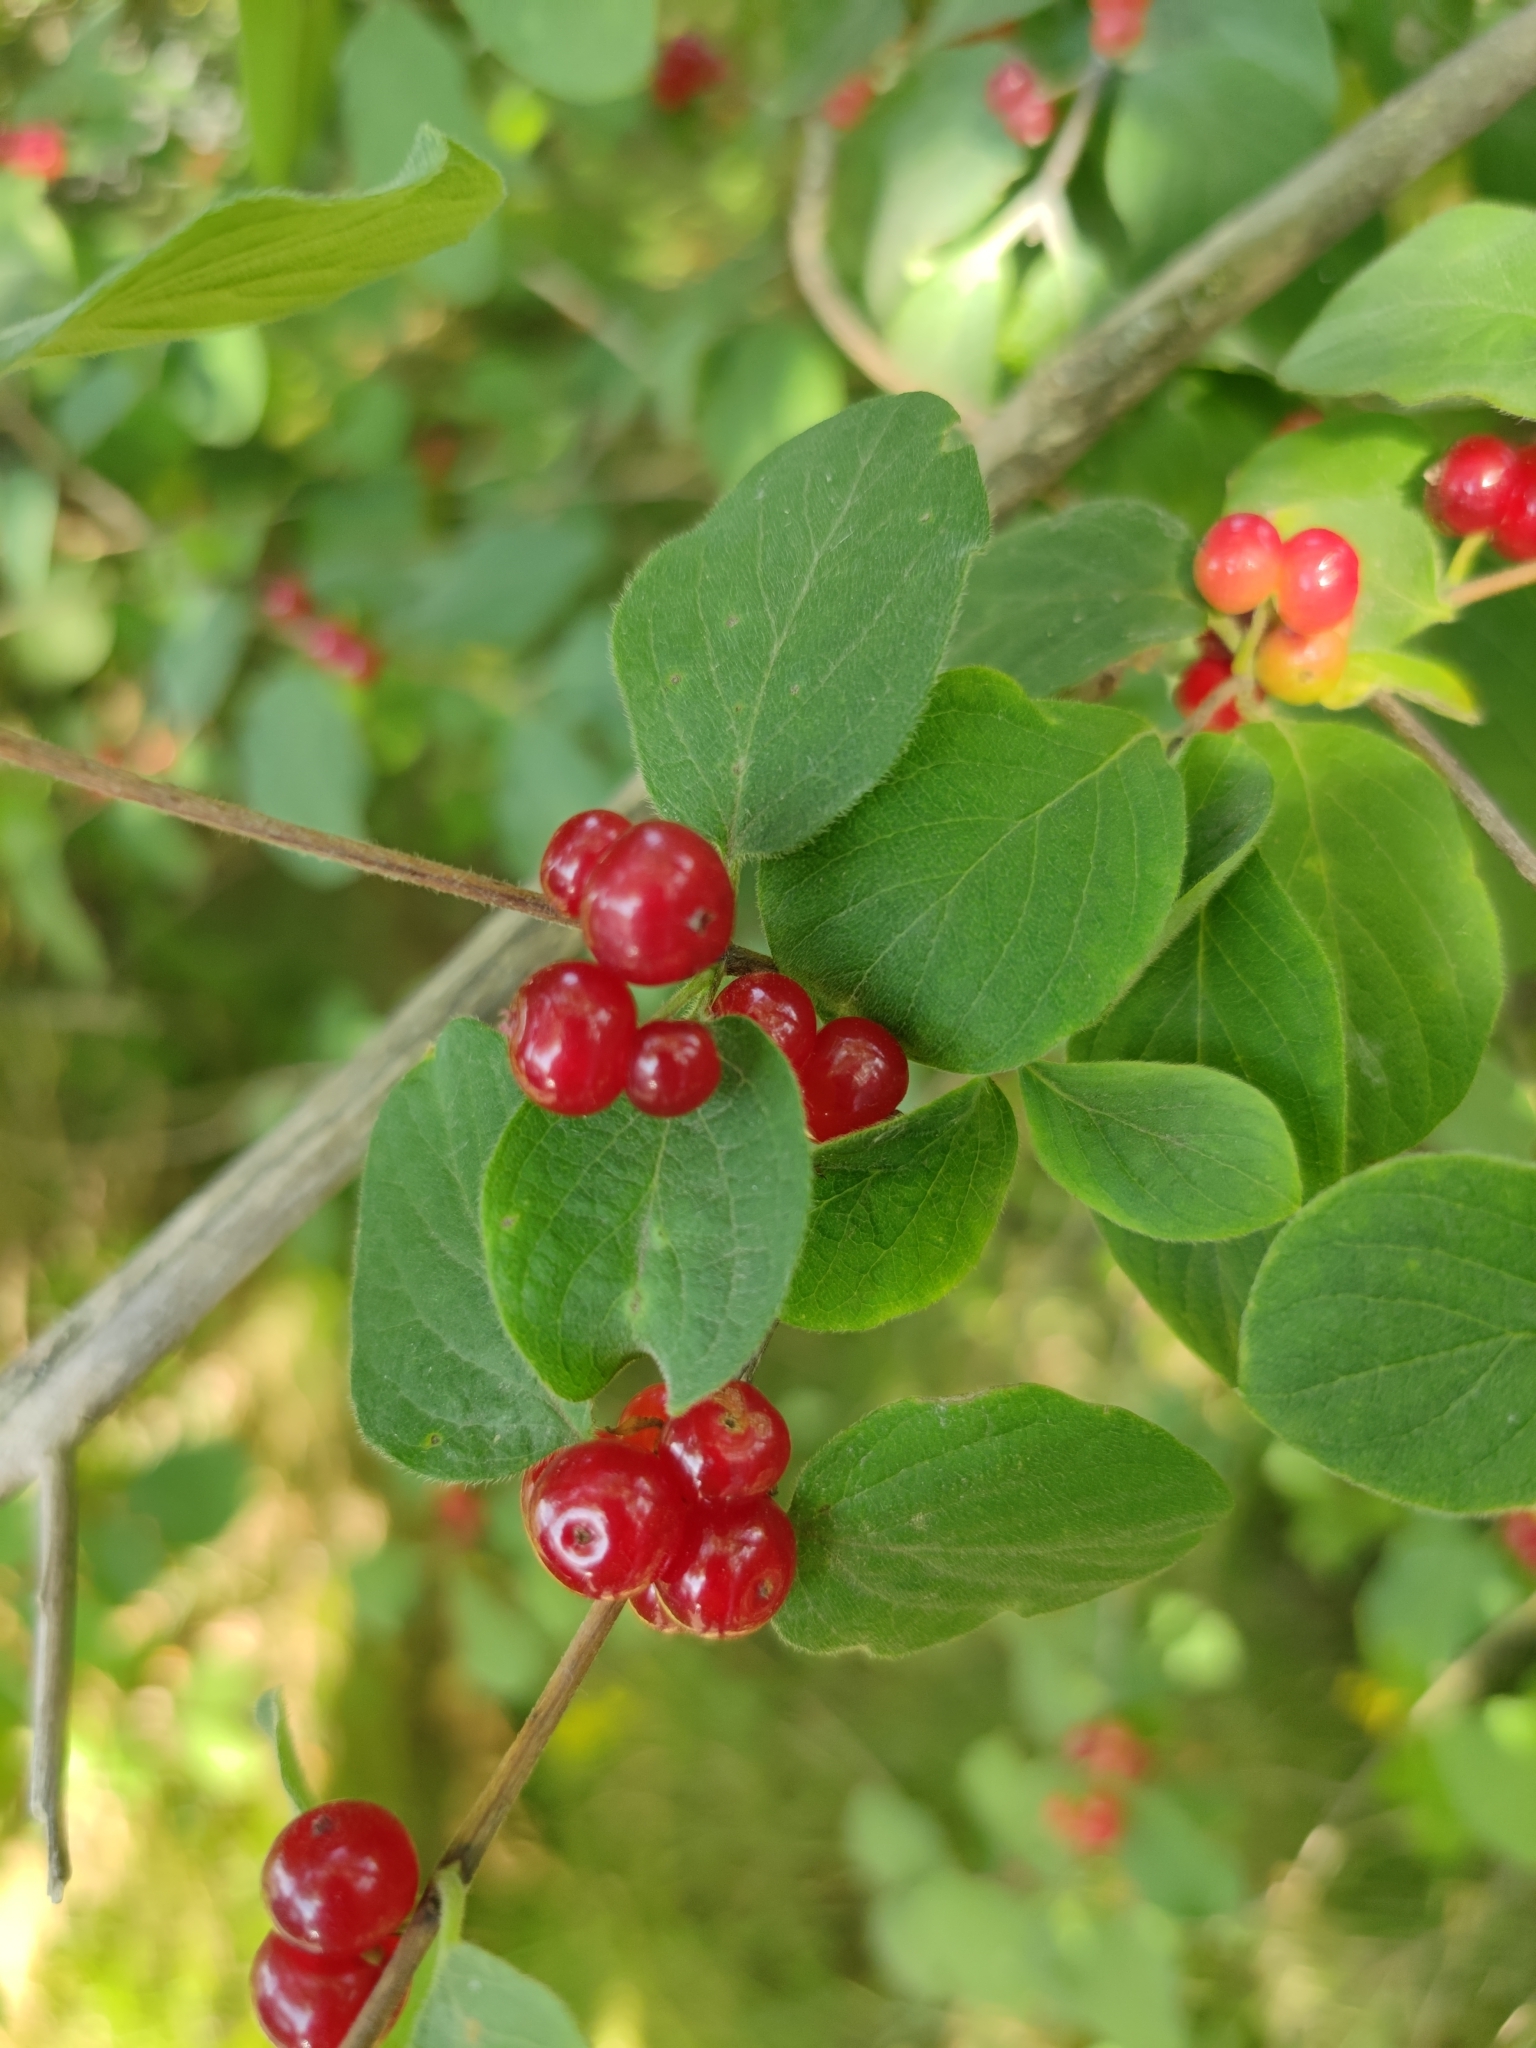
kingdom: Plantae
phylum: Tracheophyta
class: Magnoliopsida
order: Dipsacales
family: Caprifoliaceae
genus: Lonicera
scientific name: Lonicera xylosteum
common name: Fly honeysuckle
